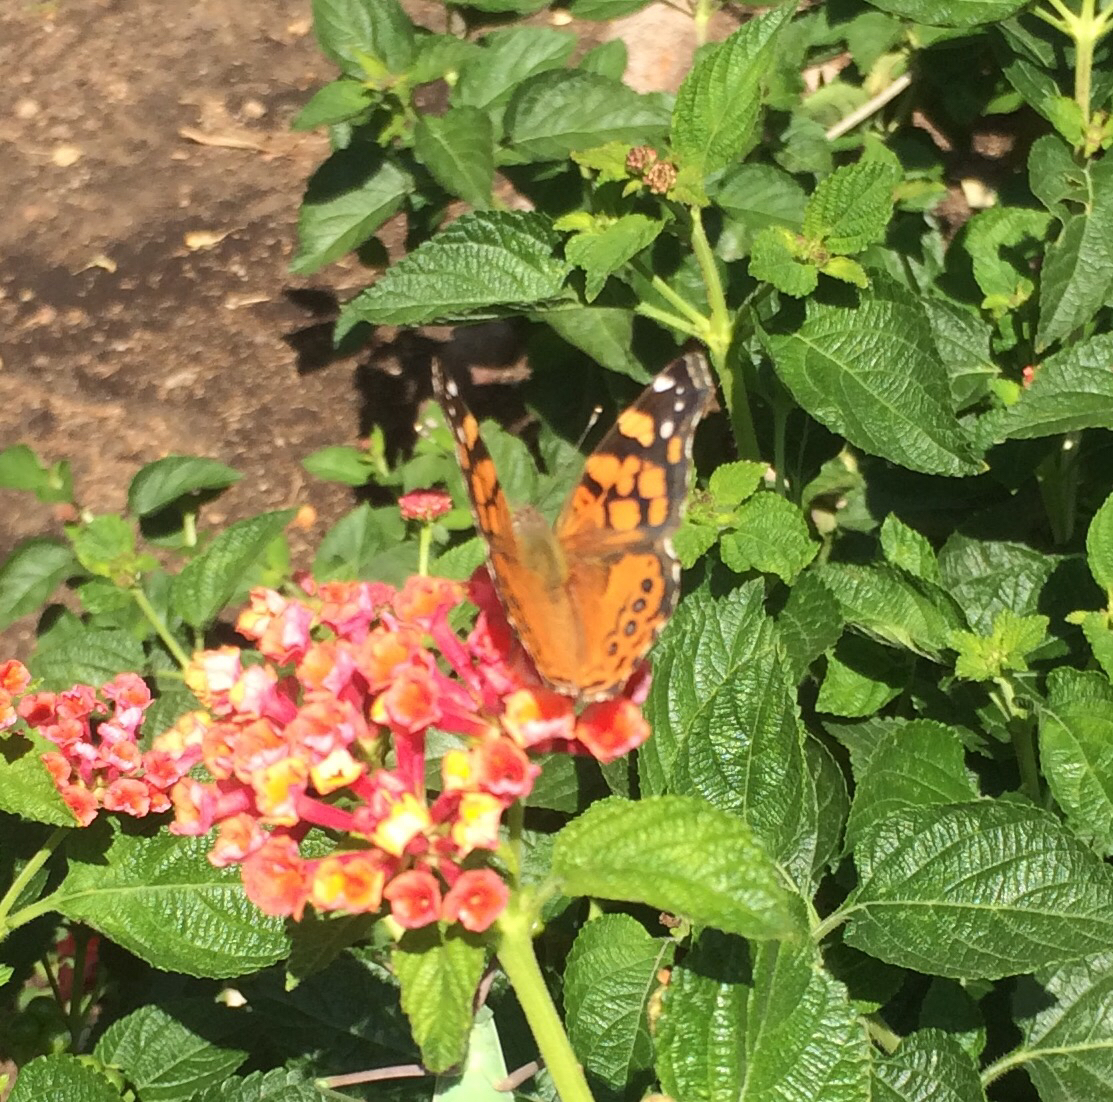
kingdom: Animalia
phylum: Arthropoda
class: Insecta
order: Lepidoptera
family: Nymphalidae
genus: Vanessa
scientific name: Vanessa annabella
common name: West coast lady
